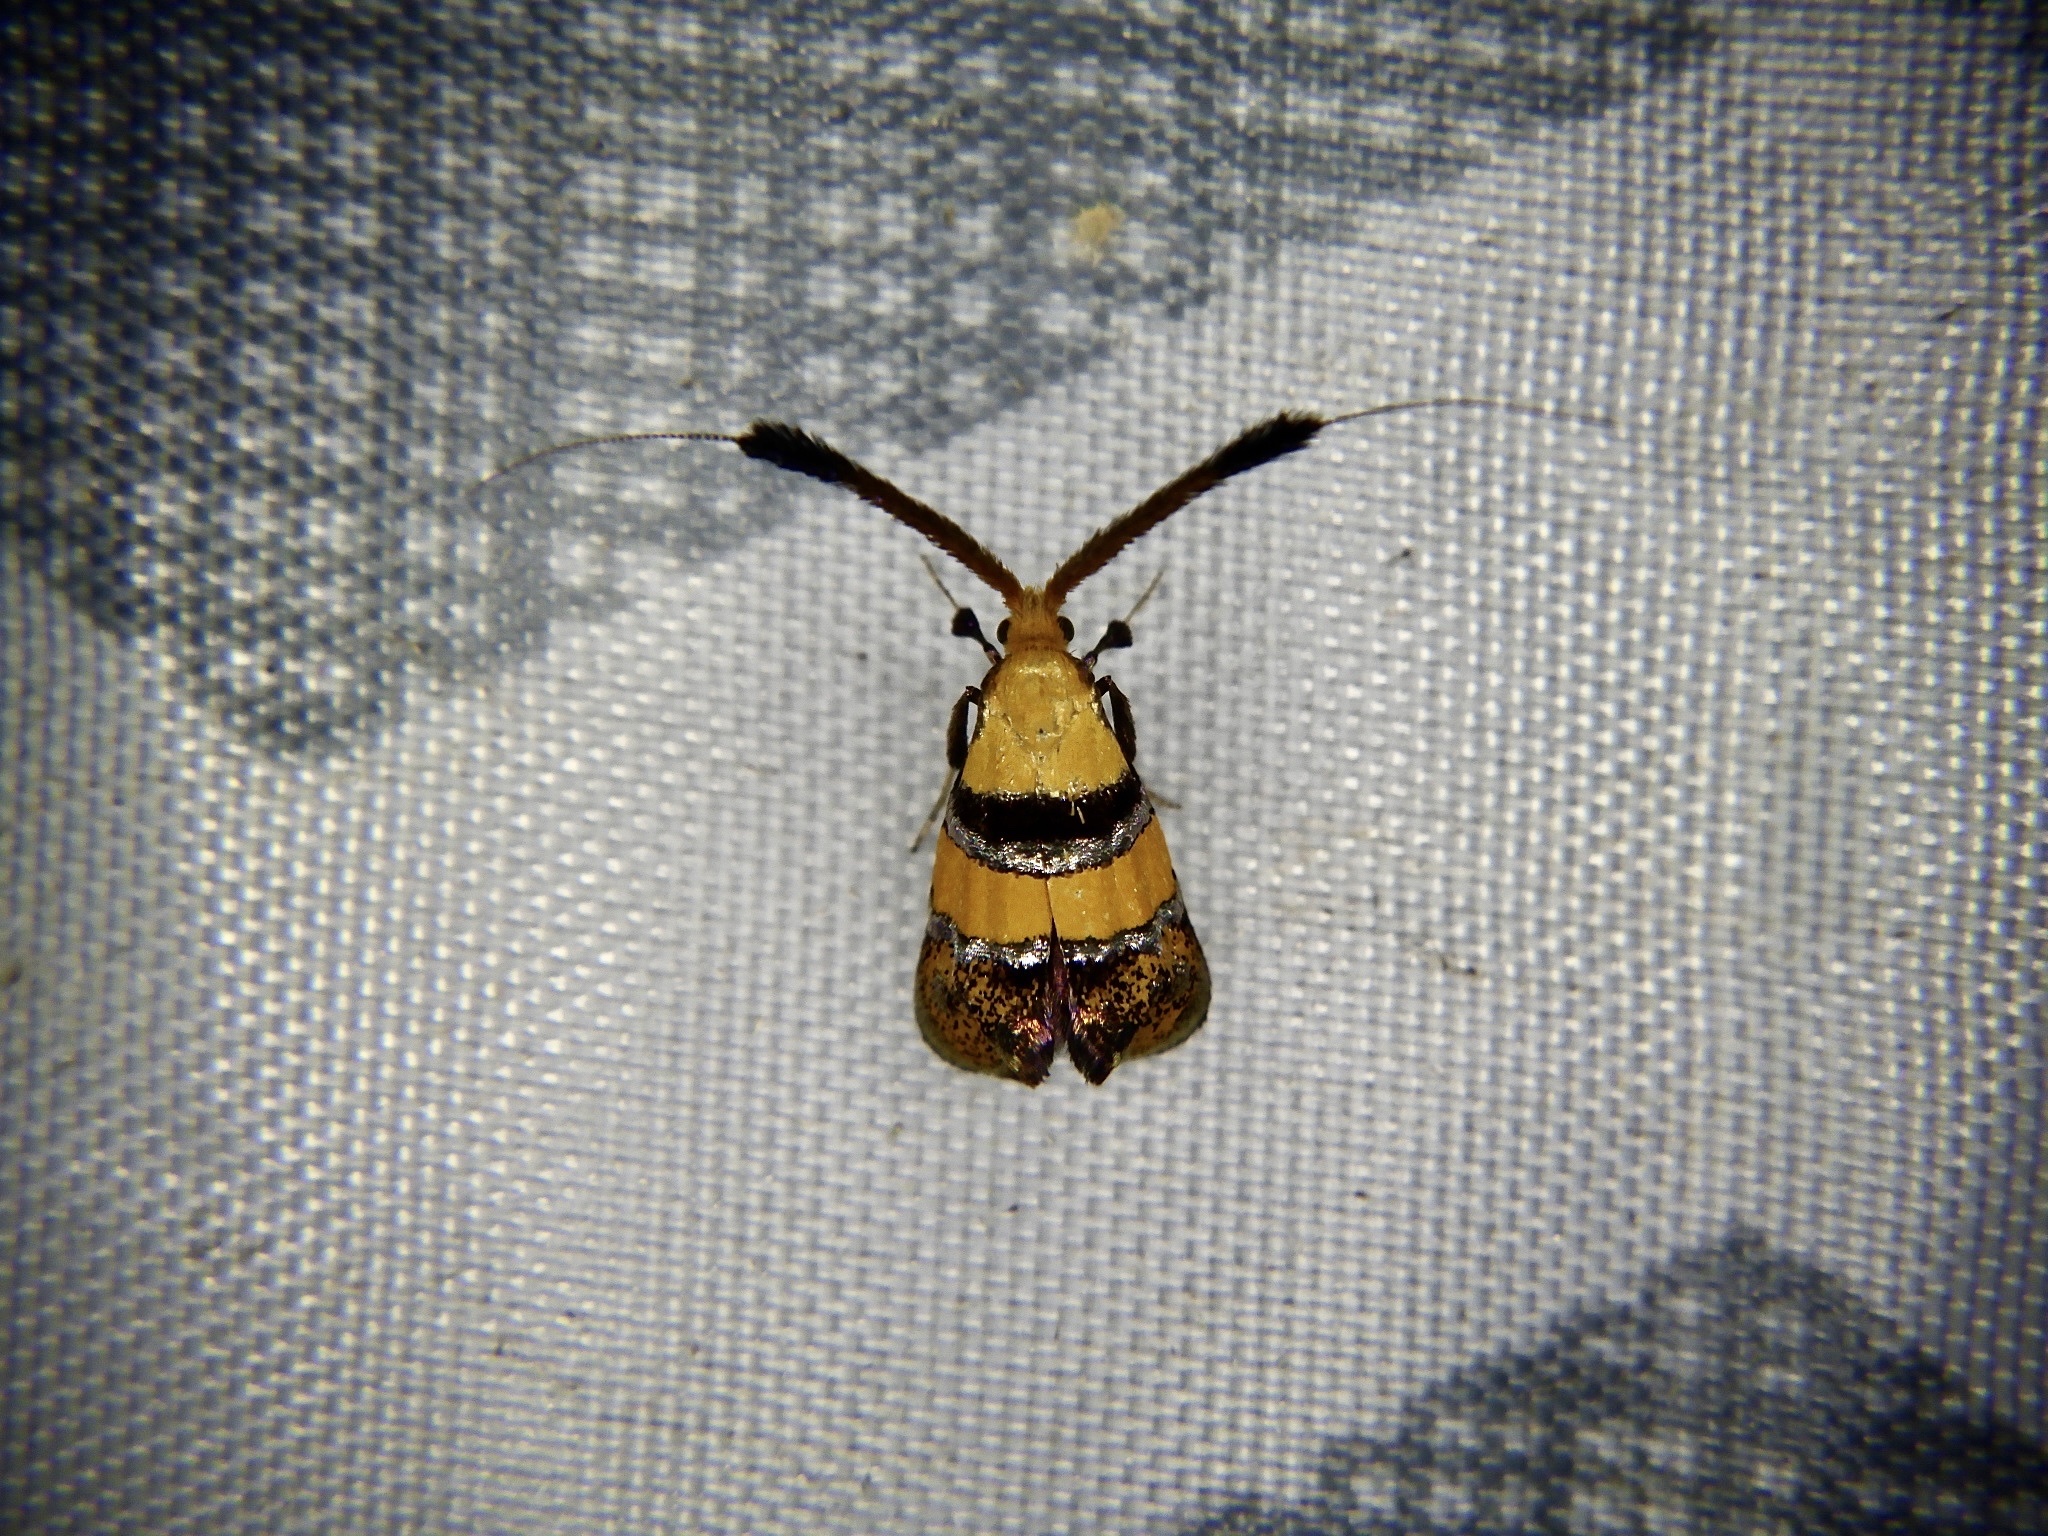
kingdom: Animalia
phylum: Arthropoda
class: Insecta
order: Lepidoptera
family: Adelidae
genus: Nemophora
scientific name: Nemophora paradisea
